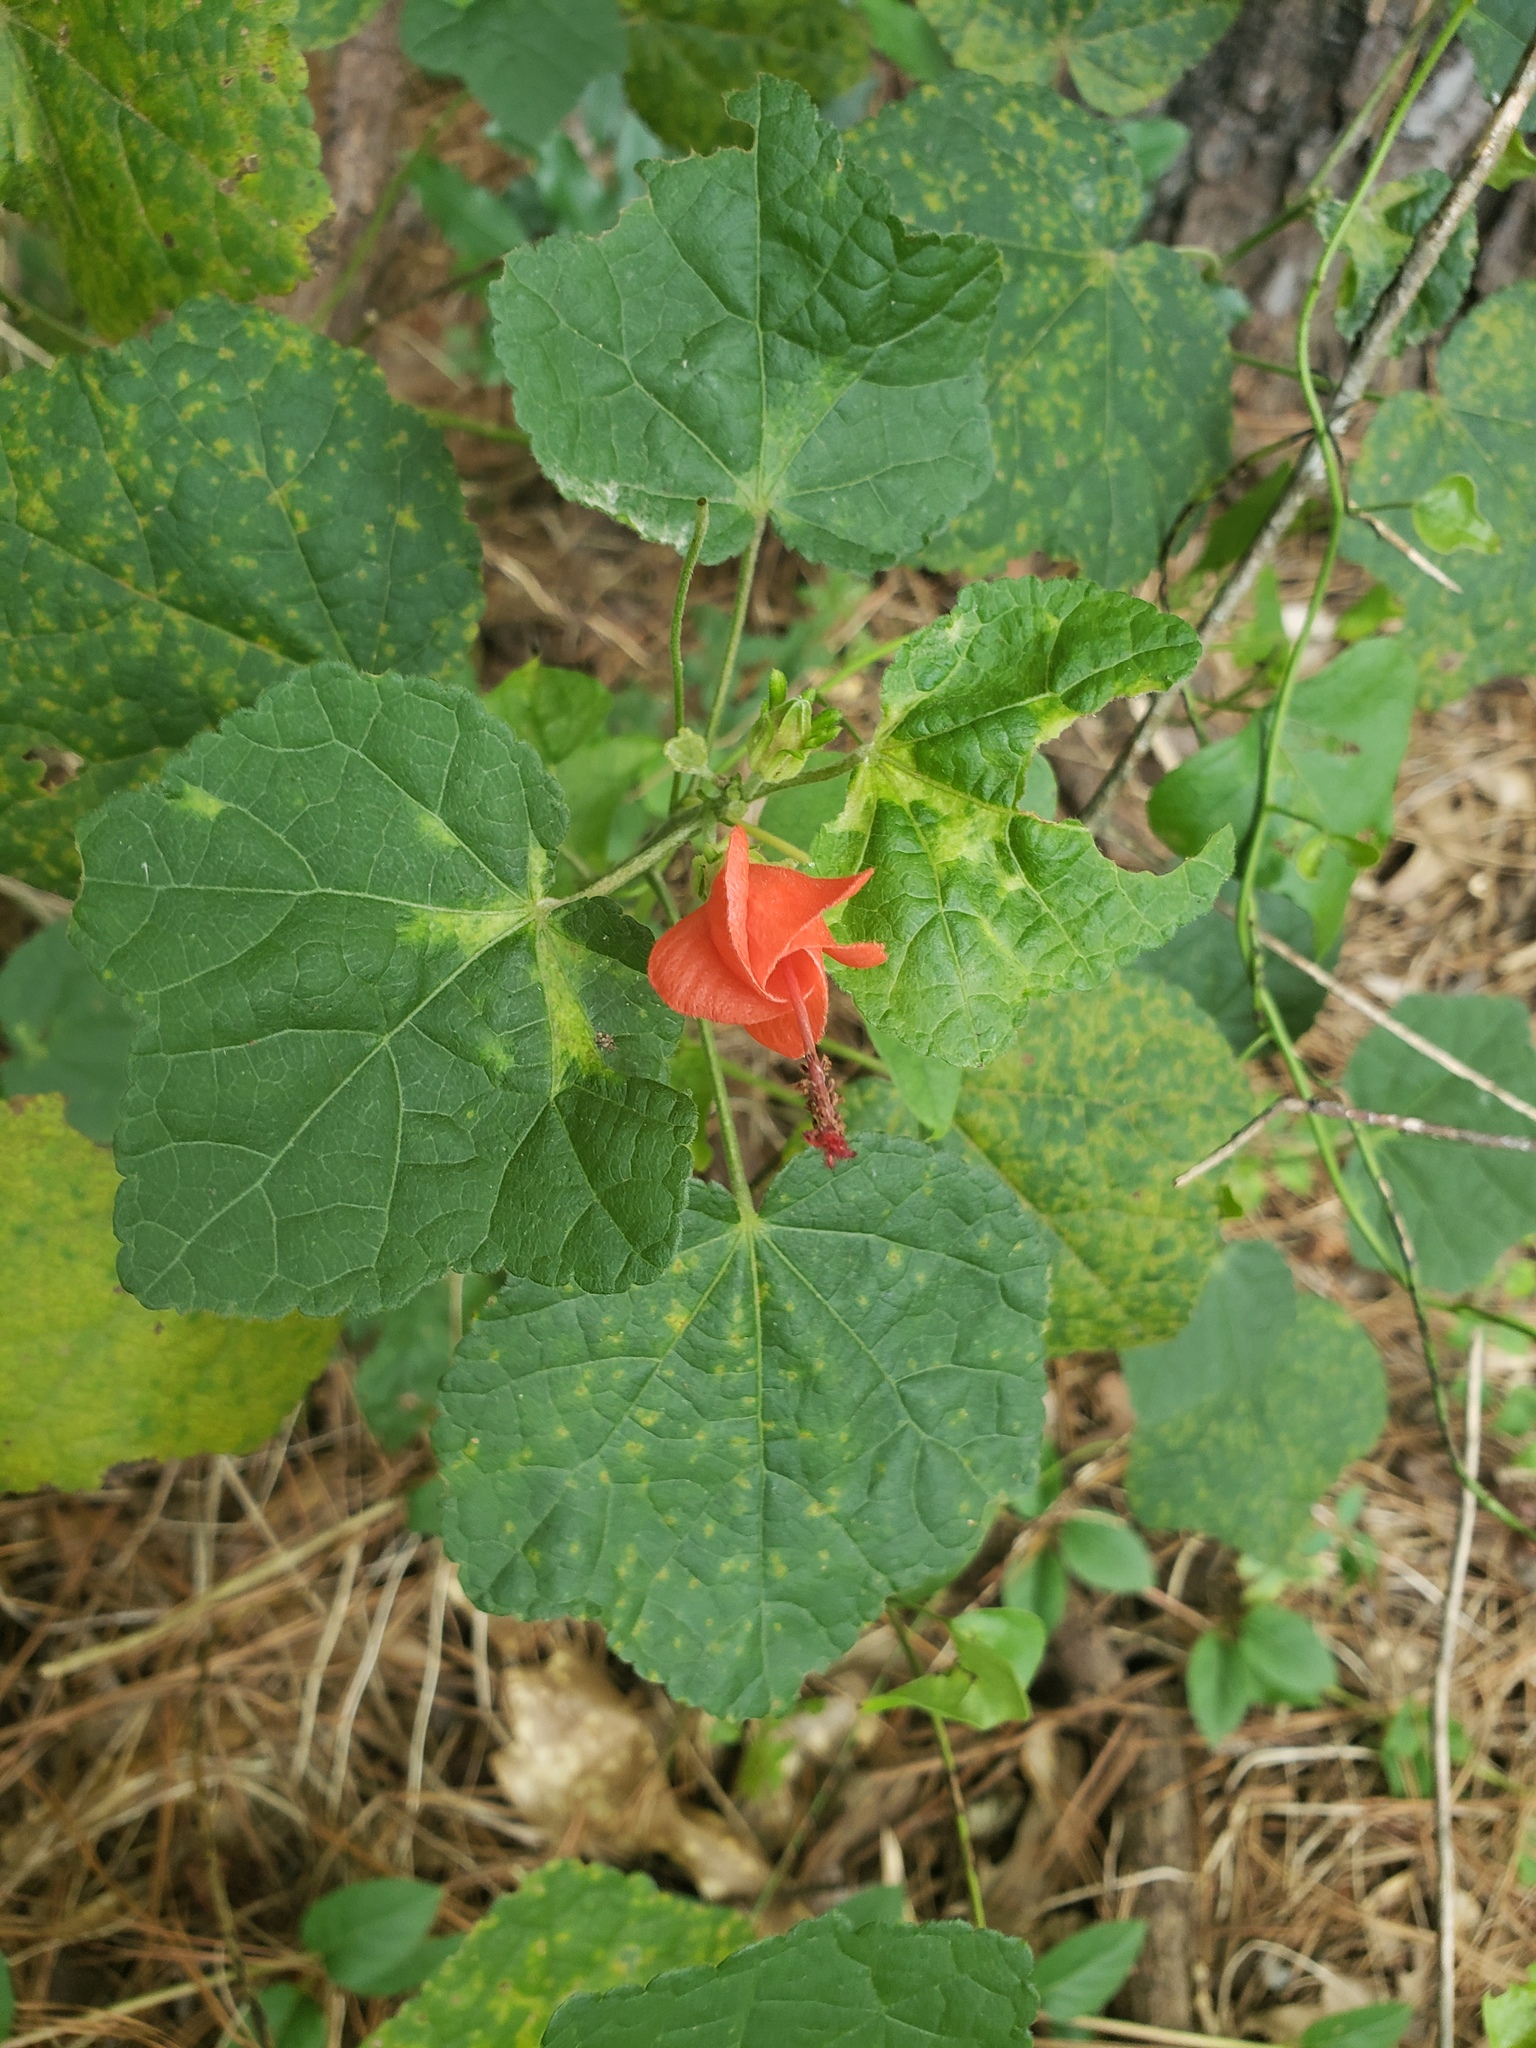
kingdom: Plantae
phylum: Tracheophyta
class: Magnoliopsida
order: Malvales
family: Malvaceae
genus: Malvaviscus
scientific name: Malvaviscus arboreus
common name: Wax mallow
